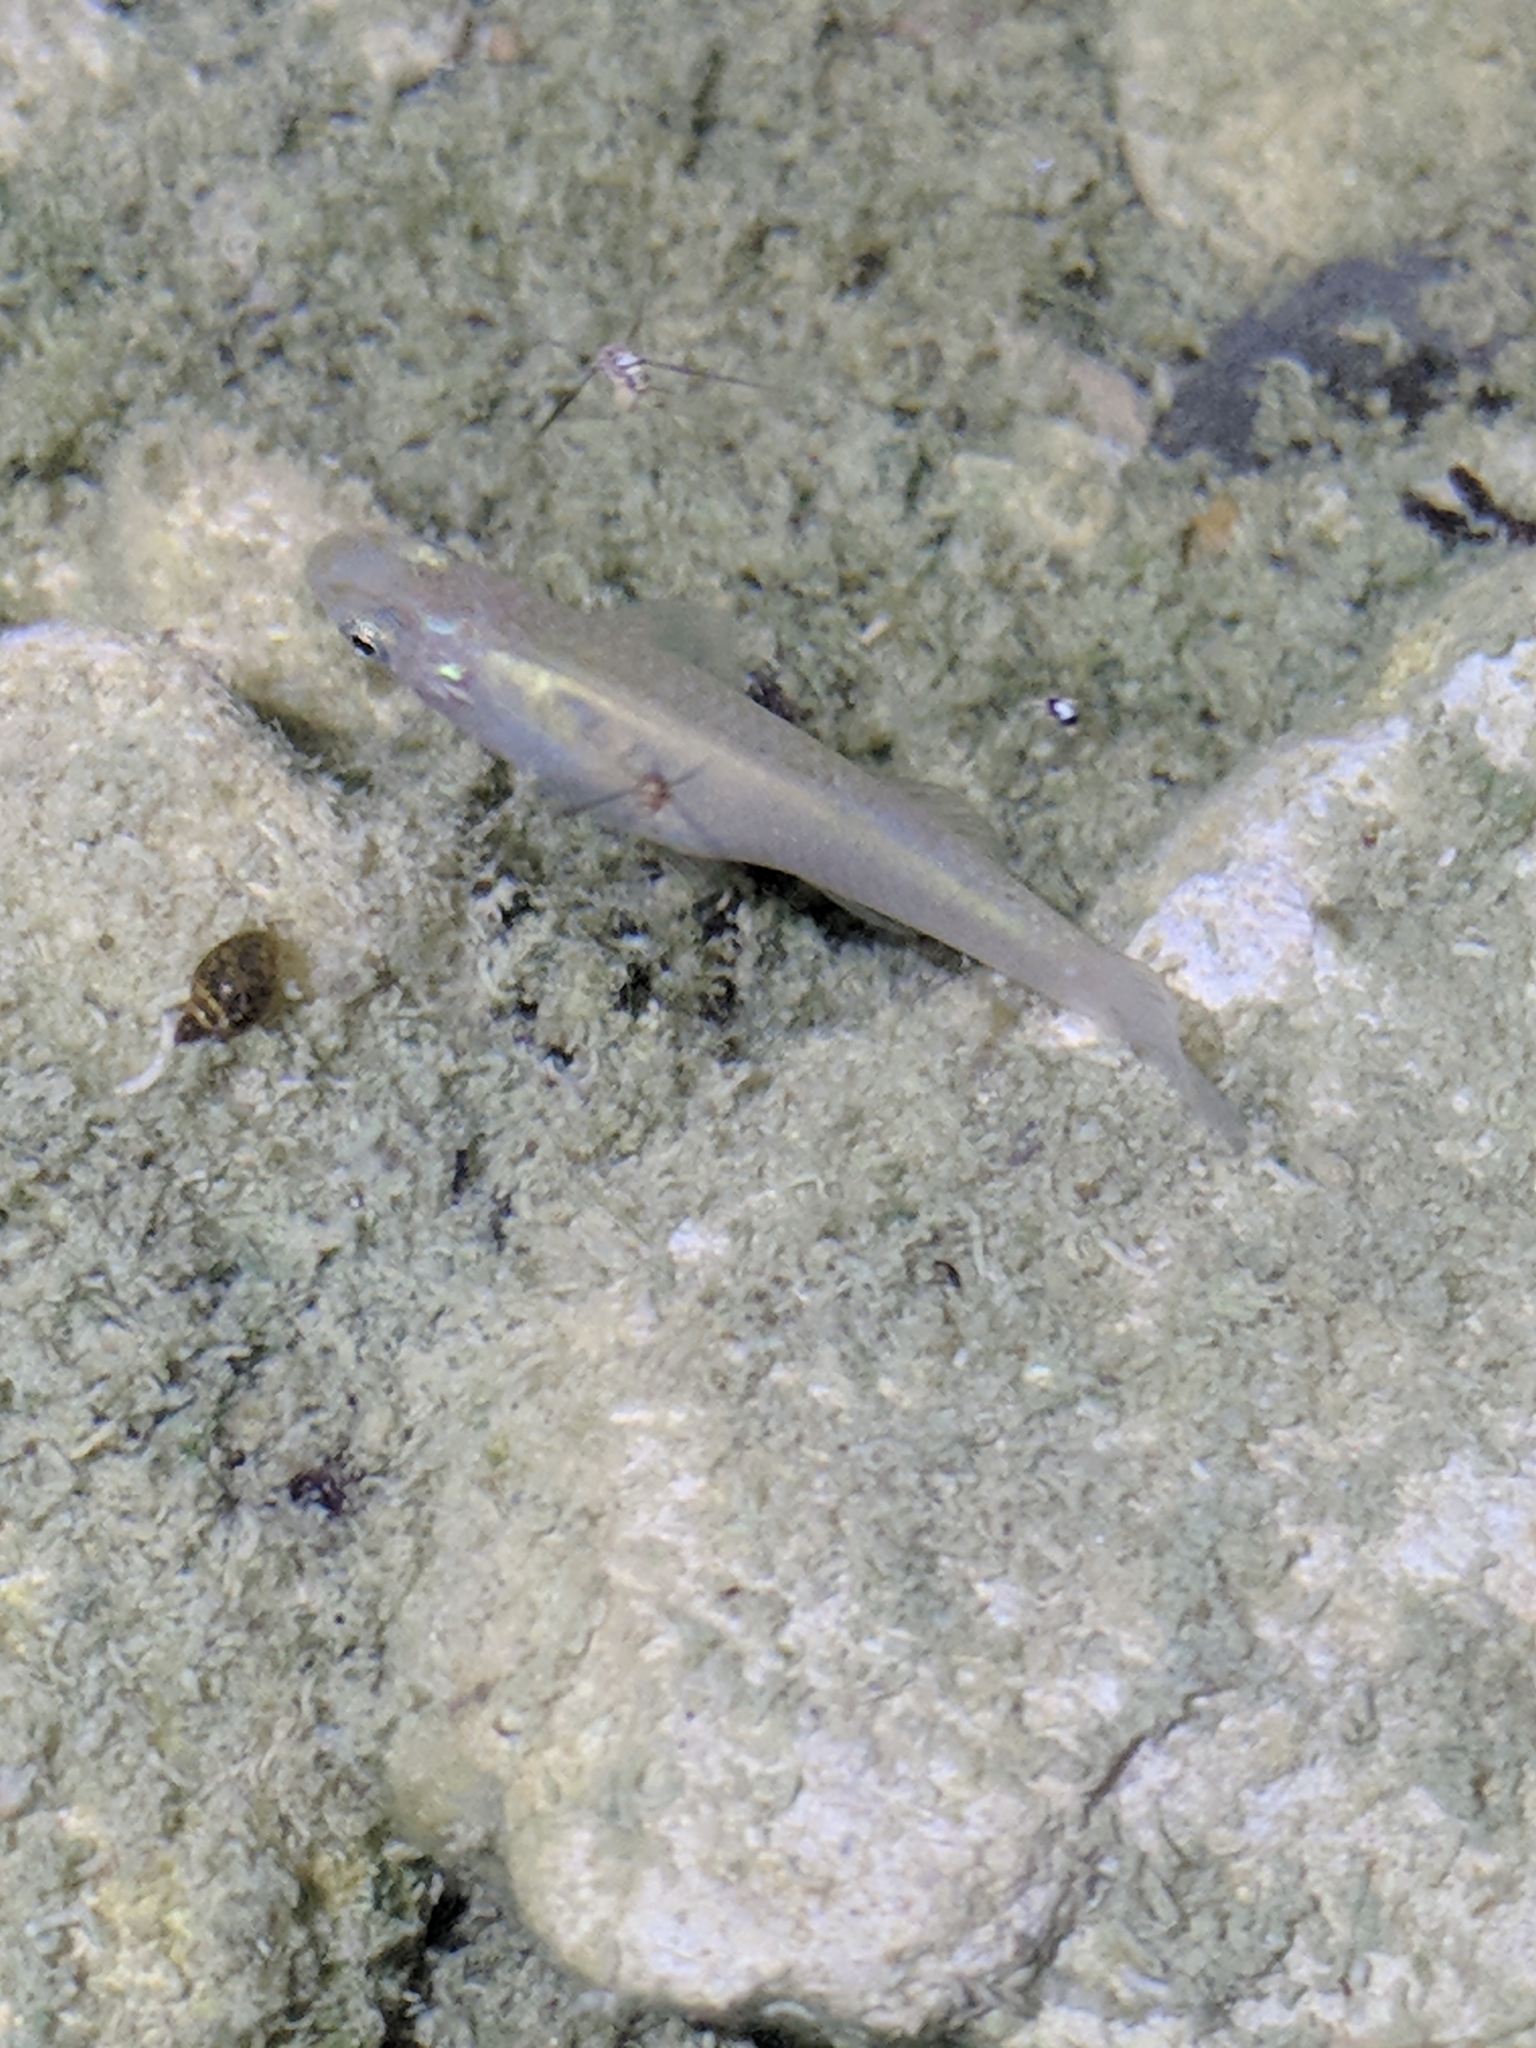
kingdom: Animalia
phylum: Chordata
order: Cyprinodontiformes
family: Poeciliidae
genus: Gambusia
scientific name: Gambusia affinis
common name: Mosquitofish
